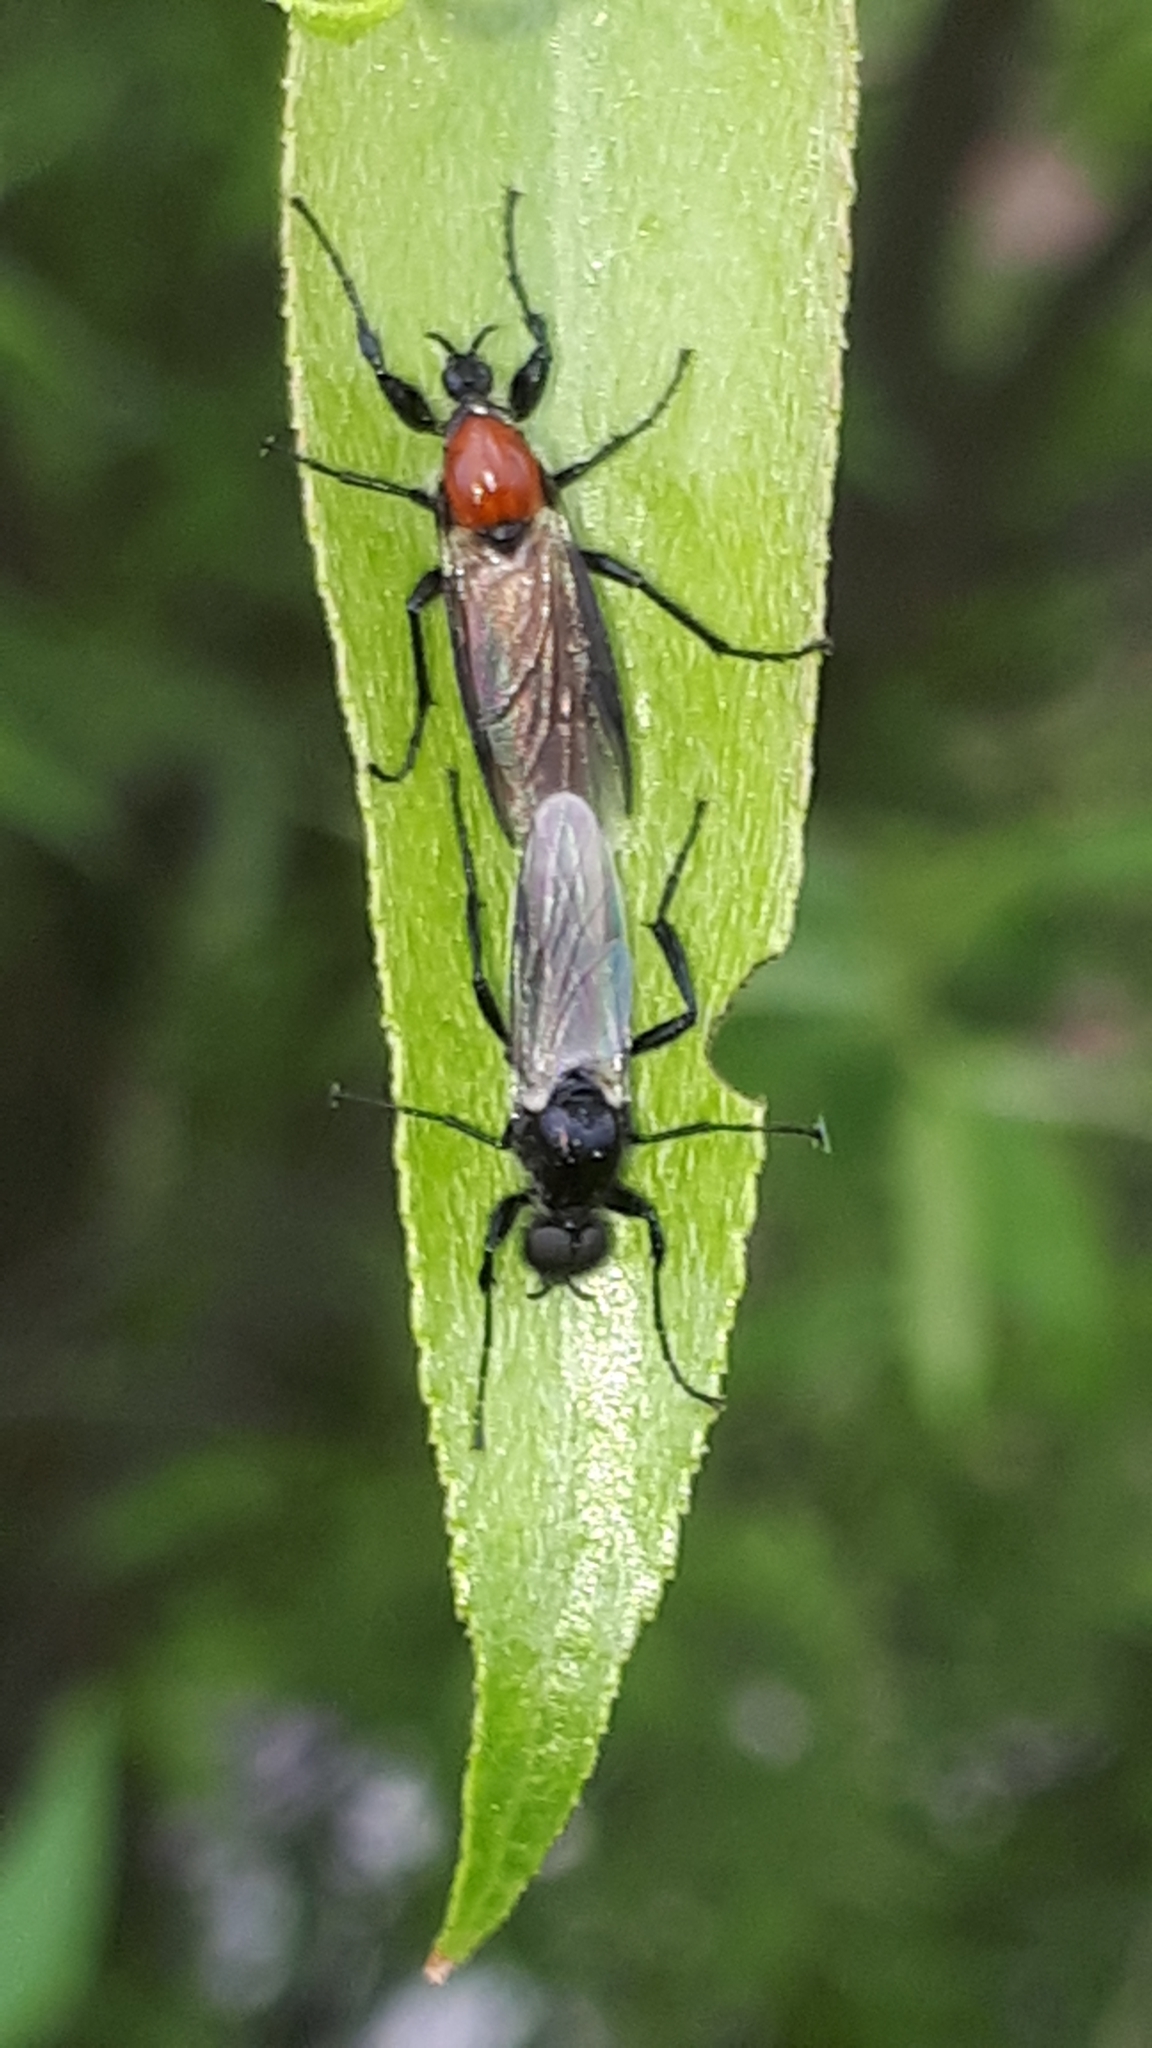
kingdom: Animalia
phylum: Arthropoda
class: Insecta
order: Diptera
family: Bibionidae
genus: Bibio
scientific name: Bibio hortulanus
